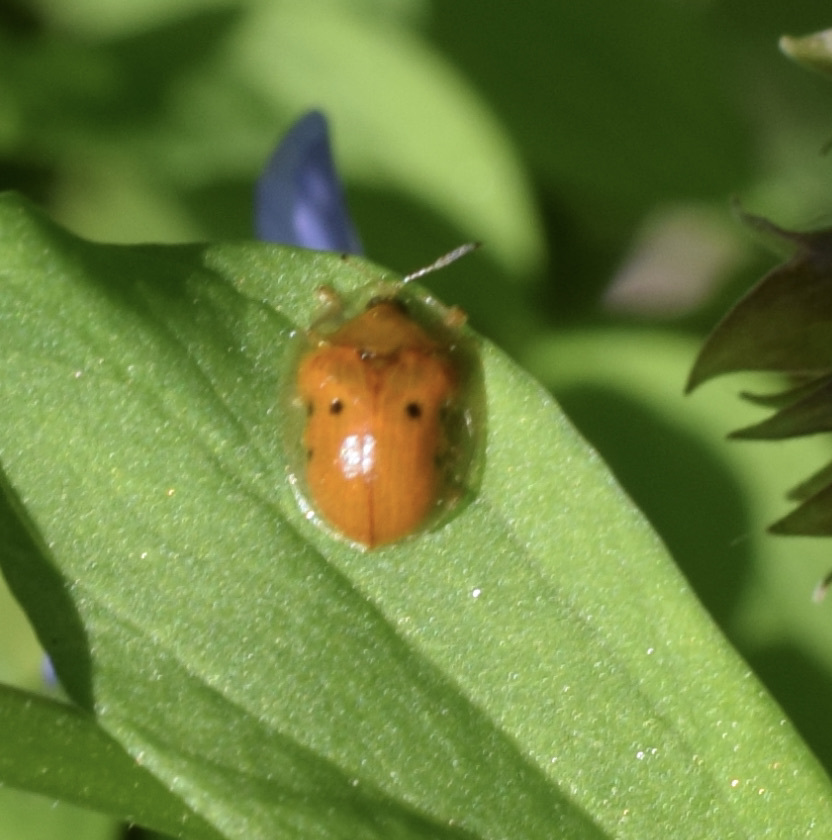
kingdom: Animalia
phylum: Arthropoda
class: Insecta
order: Coleoptera
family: Chrysomelidae
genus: Charidotella
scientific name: Charidotella sexpunctata
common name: Golden tortoise beetle
